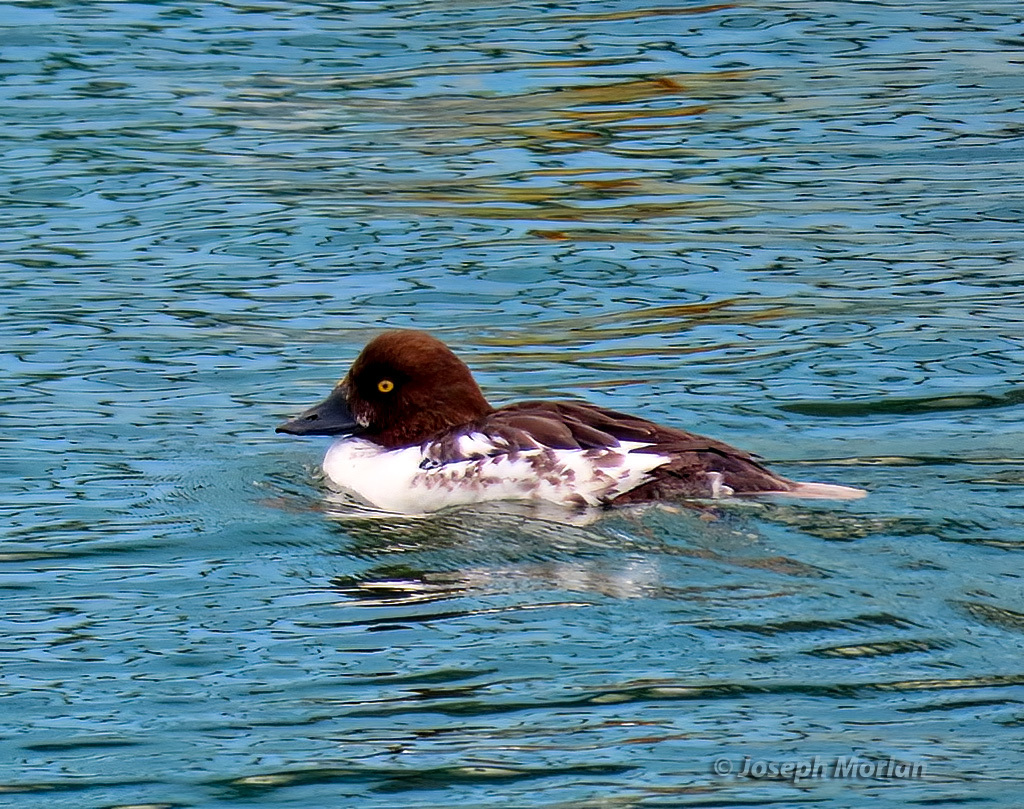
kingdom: Animalia
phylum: Chordata
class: Aves
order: Anseriformes
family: Anatidae
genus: Bucephala
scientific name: Bucephala clangula
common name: Common goldeneye
